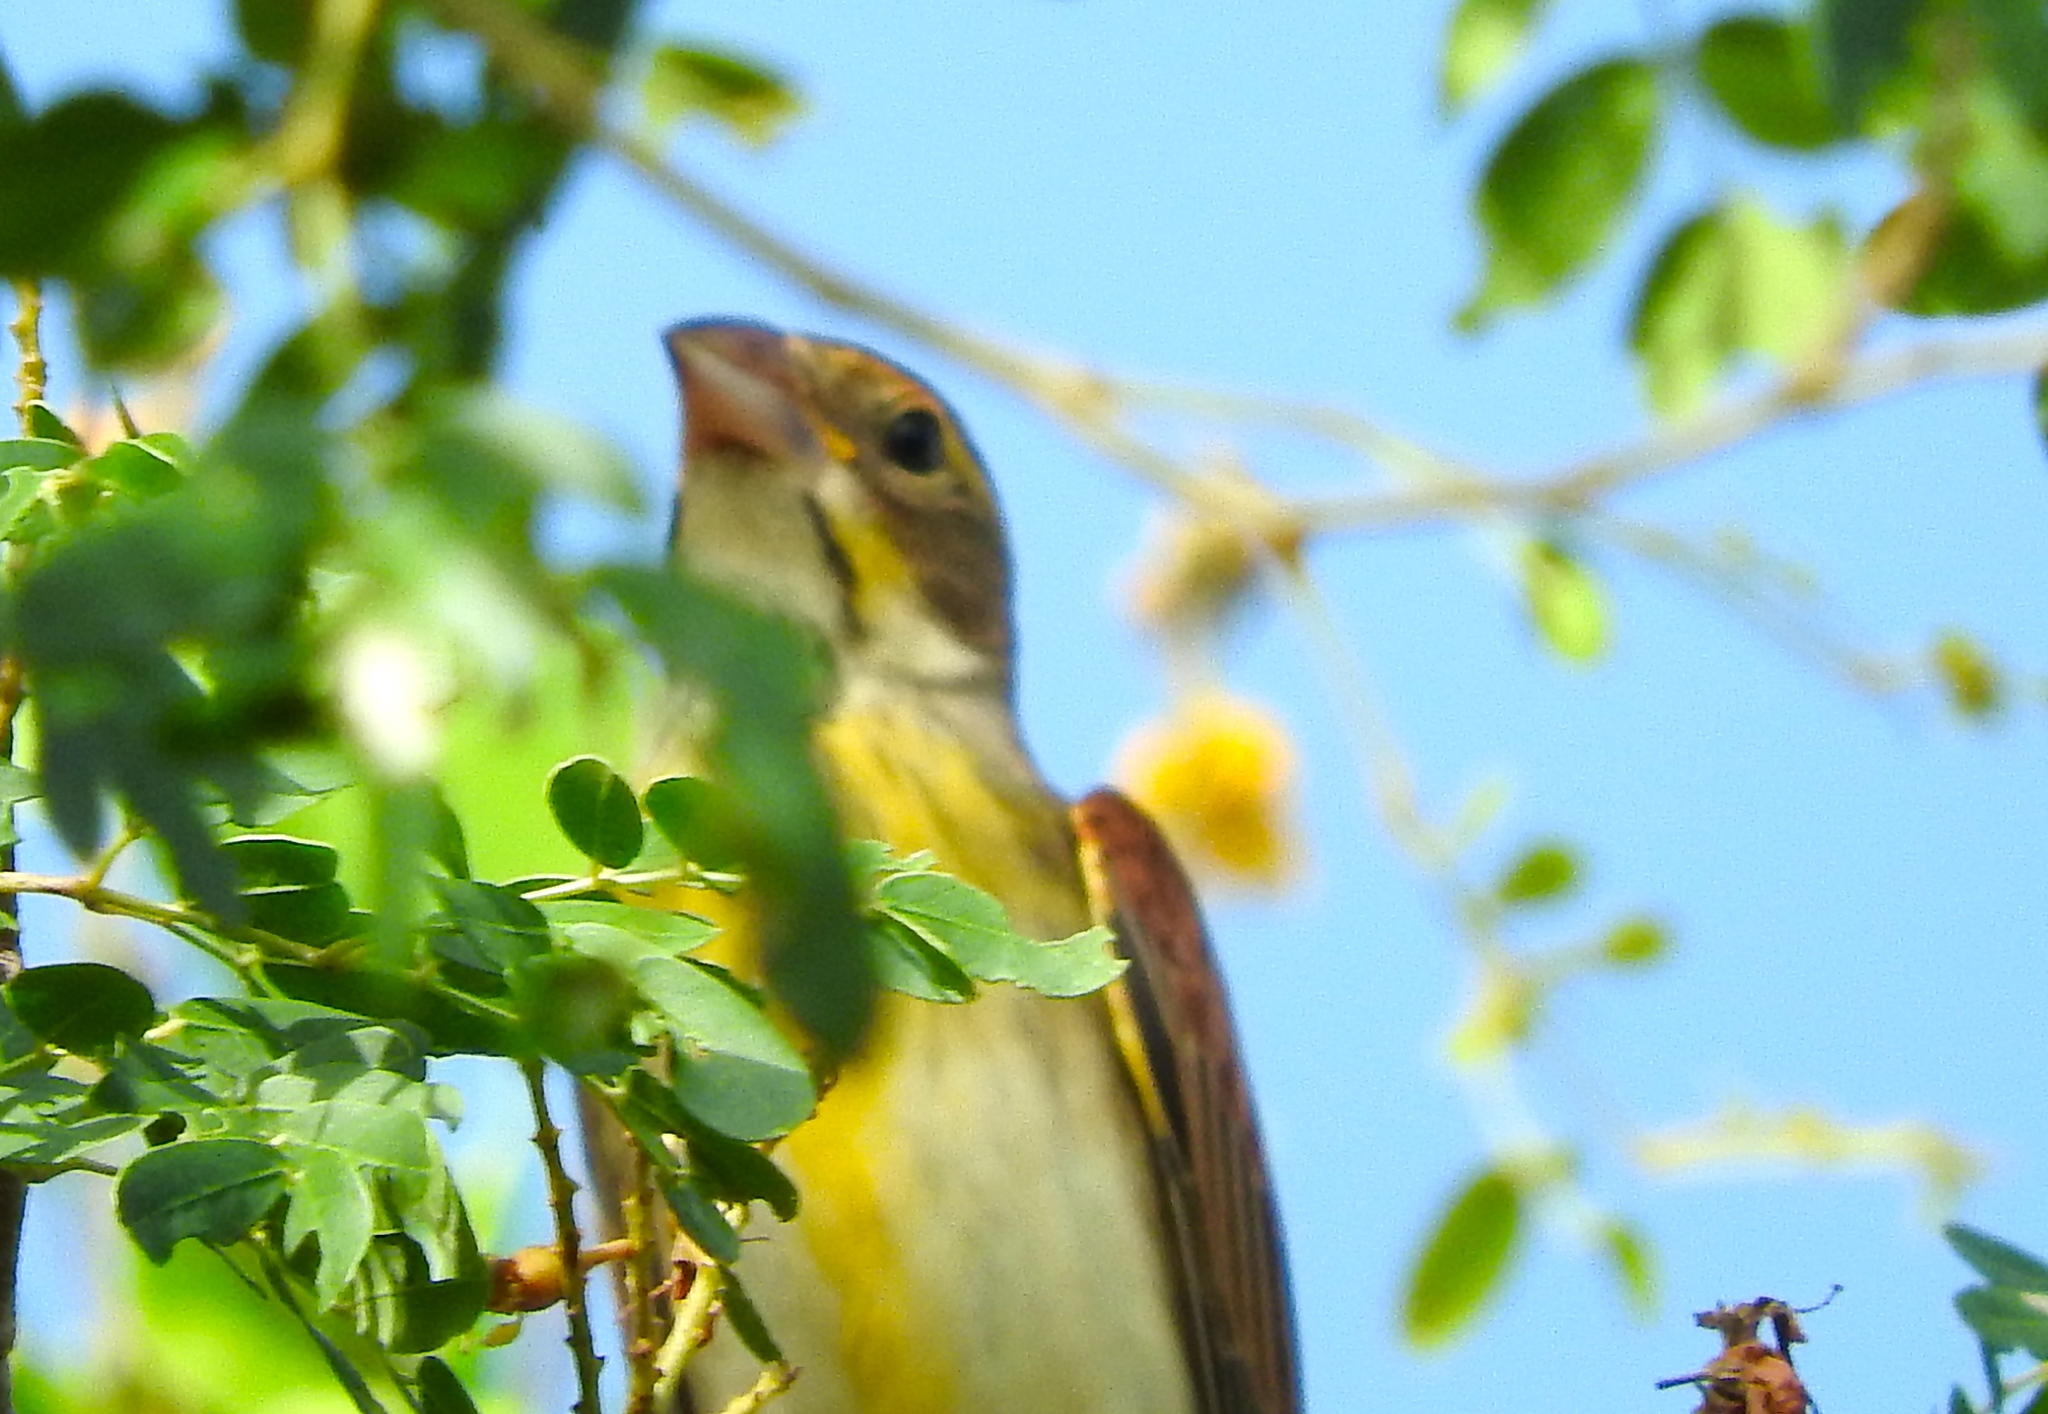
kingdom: Animalia
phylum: Chordata
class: Aves
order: Passeriformes
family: Cardinalidae
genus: Spiza
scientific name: Spiza americana
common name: Dickcissel
